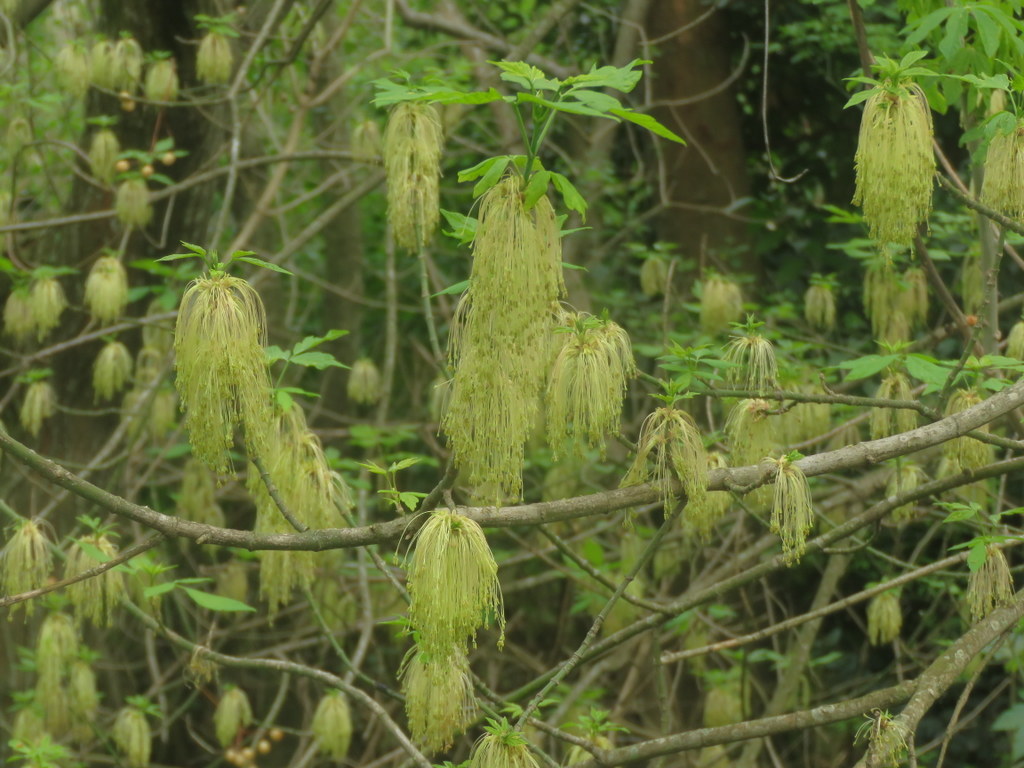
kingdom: Plantae
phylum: Tracheophyta
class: Magnoliopsida
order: Sapindales
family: Sapindaceae
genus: Acer
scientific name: Acer negundo
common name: Ashleaf maple
